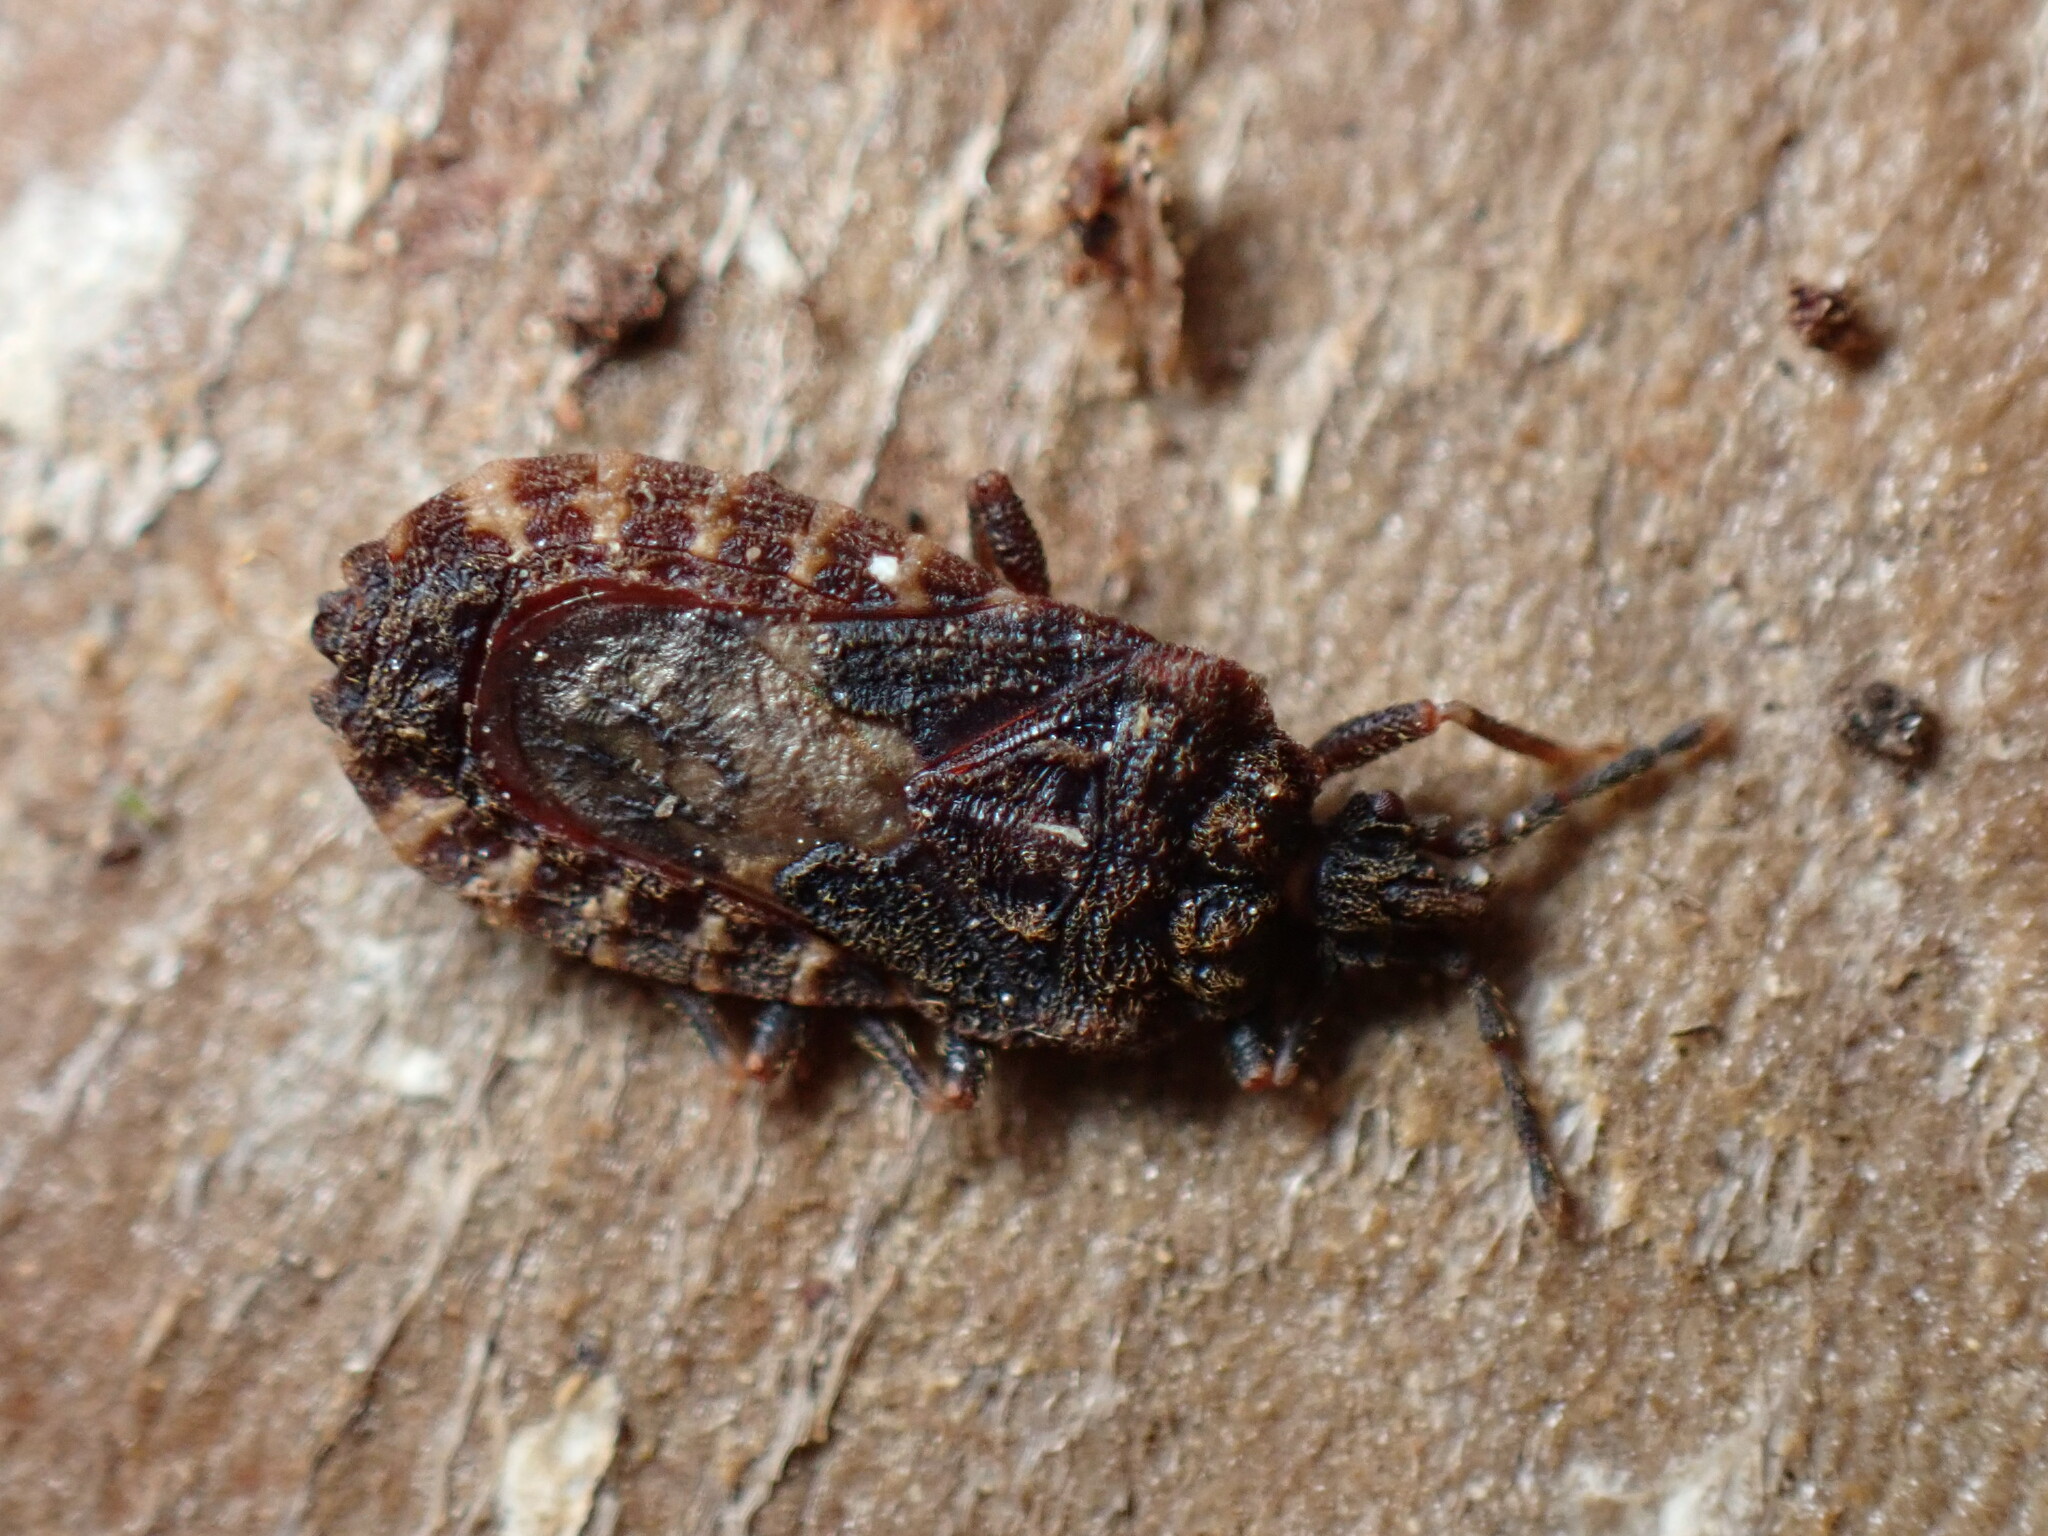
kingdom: Animalia
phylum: Arthropoda
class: Insecta
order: Hemiptera
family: Aradidae
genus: Mezira
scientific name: Mezira
